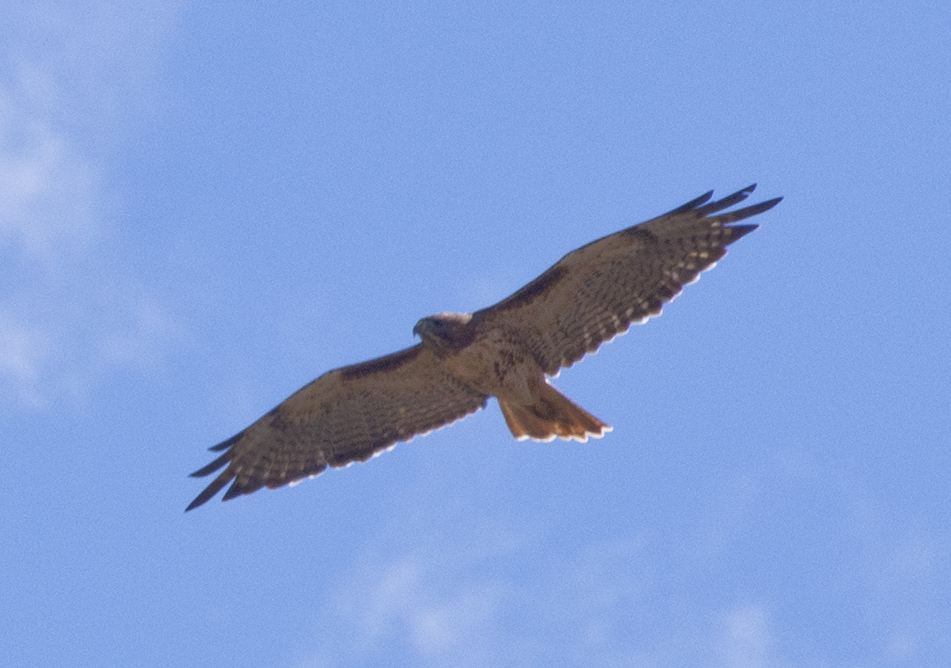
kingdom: Animalia
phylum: Chordata
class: Aves
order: Accipitriformes
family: Accipitridae
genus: Buteo
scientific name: Buteo jamaicensis
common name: Red-tailed hawk
